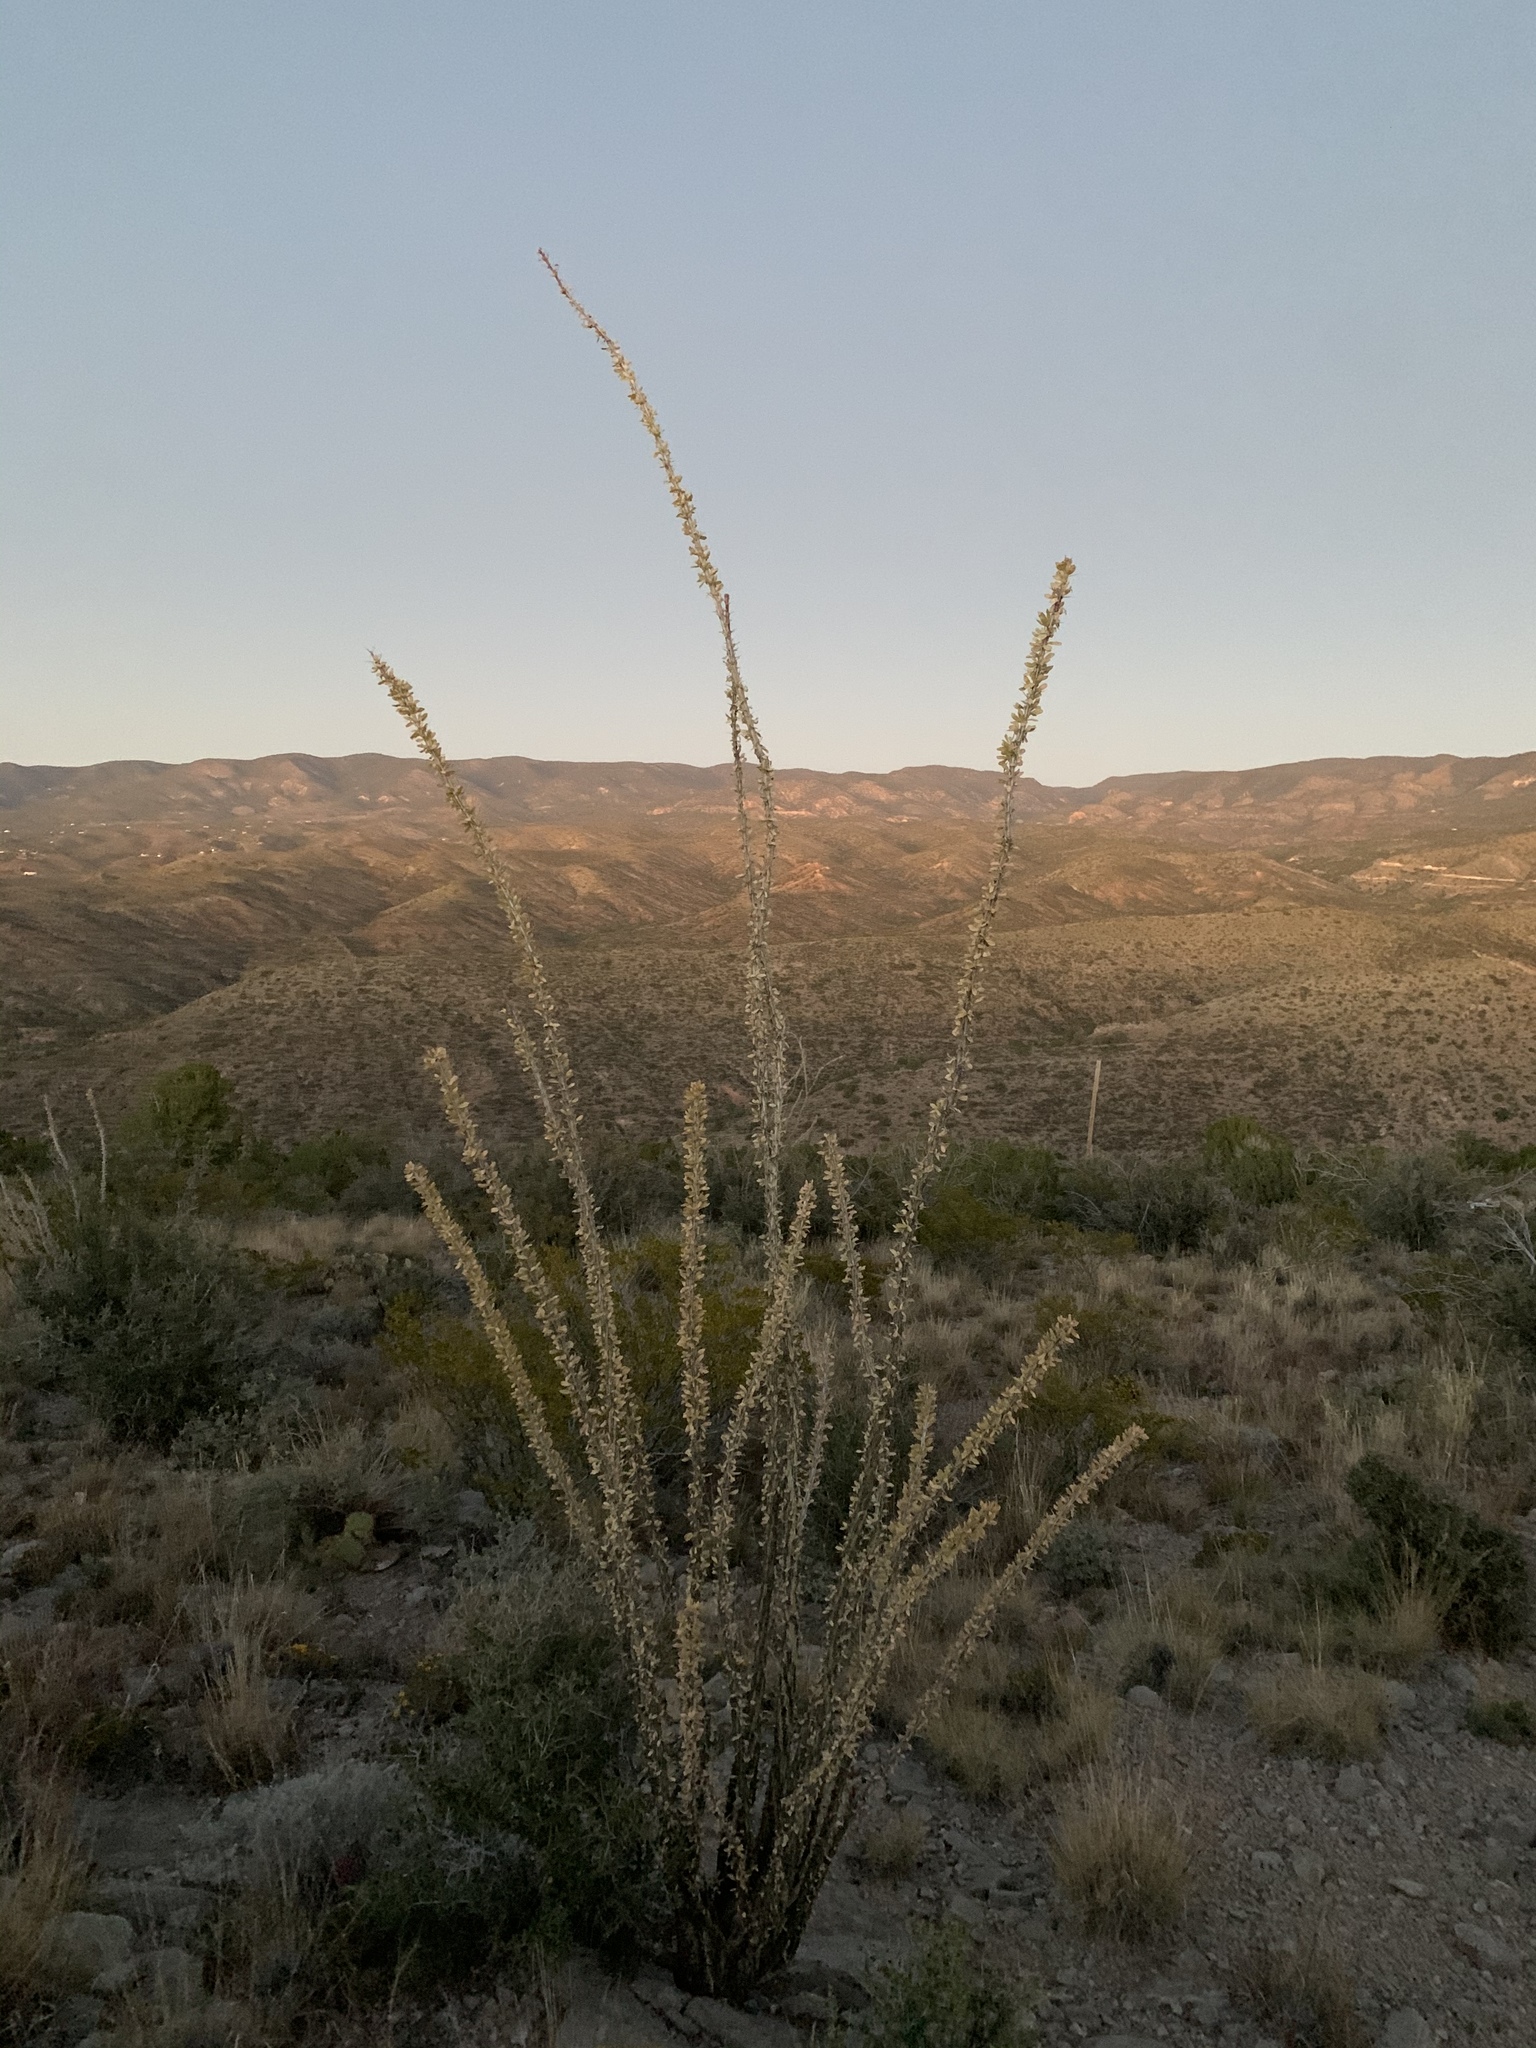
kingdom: Plantae
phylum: Tracheophyta
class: Magnoliopsida
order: Ericales
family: Fouquieriaceae
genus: Fouquieria
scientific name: Fouquieria splendens
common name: Vine-cactus
